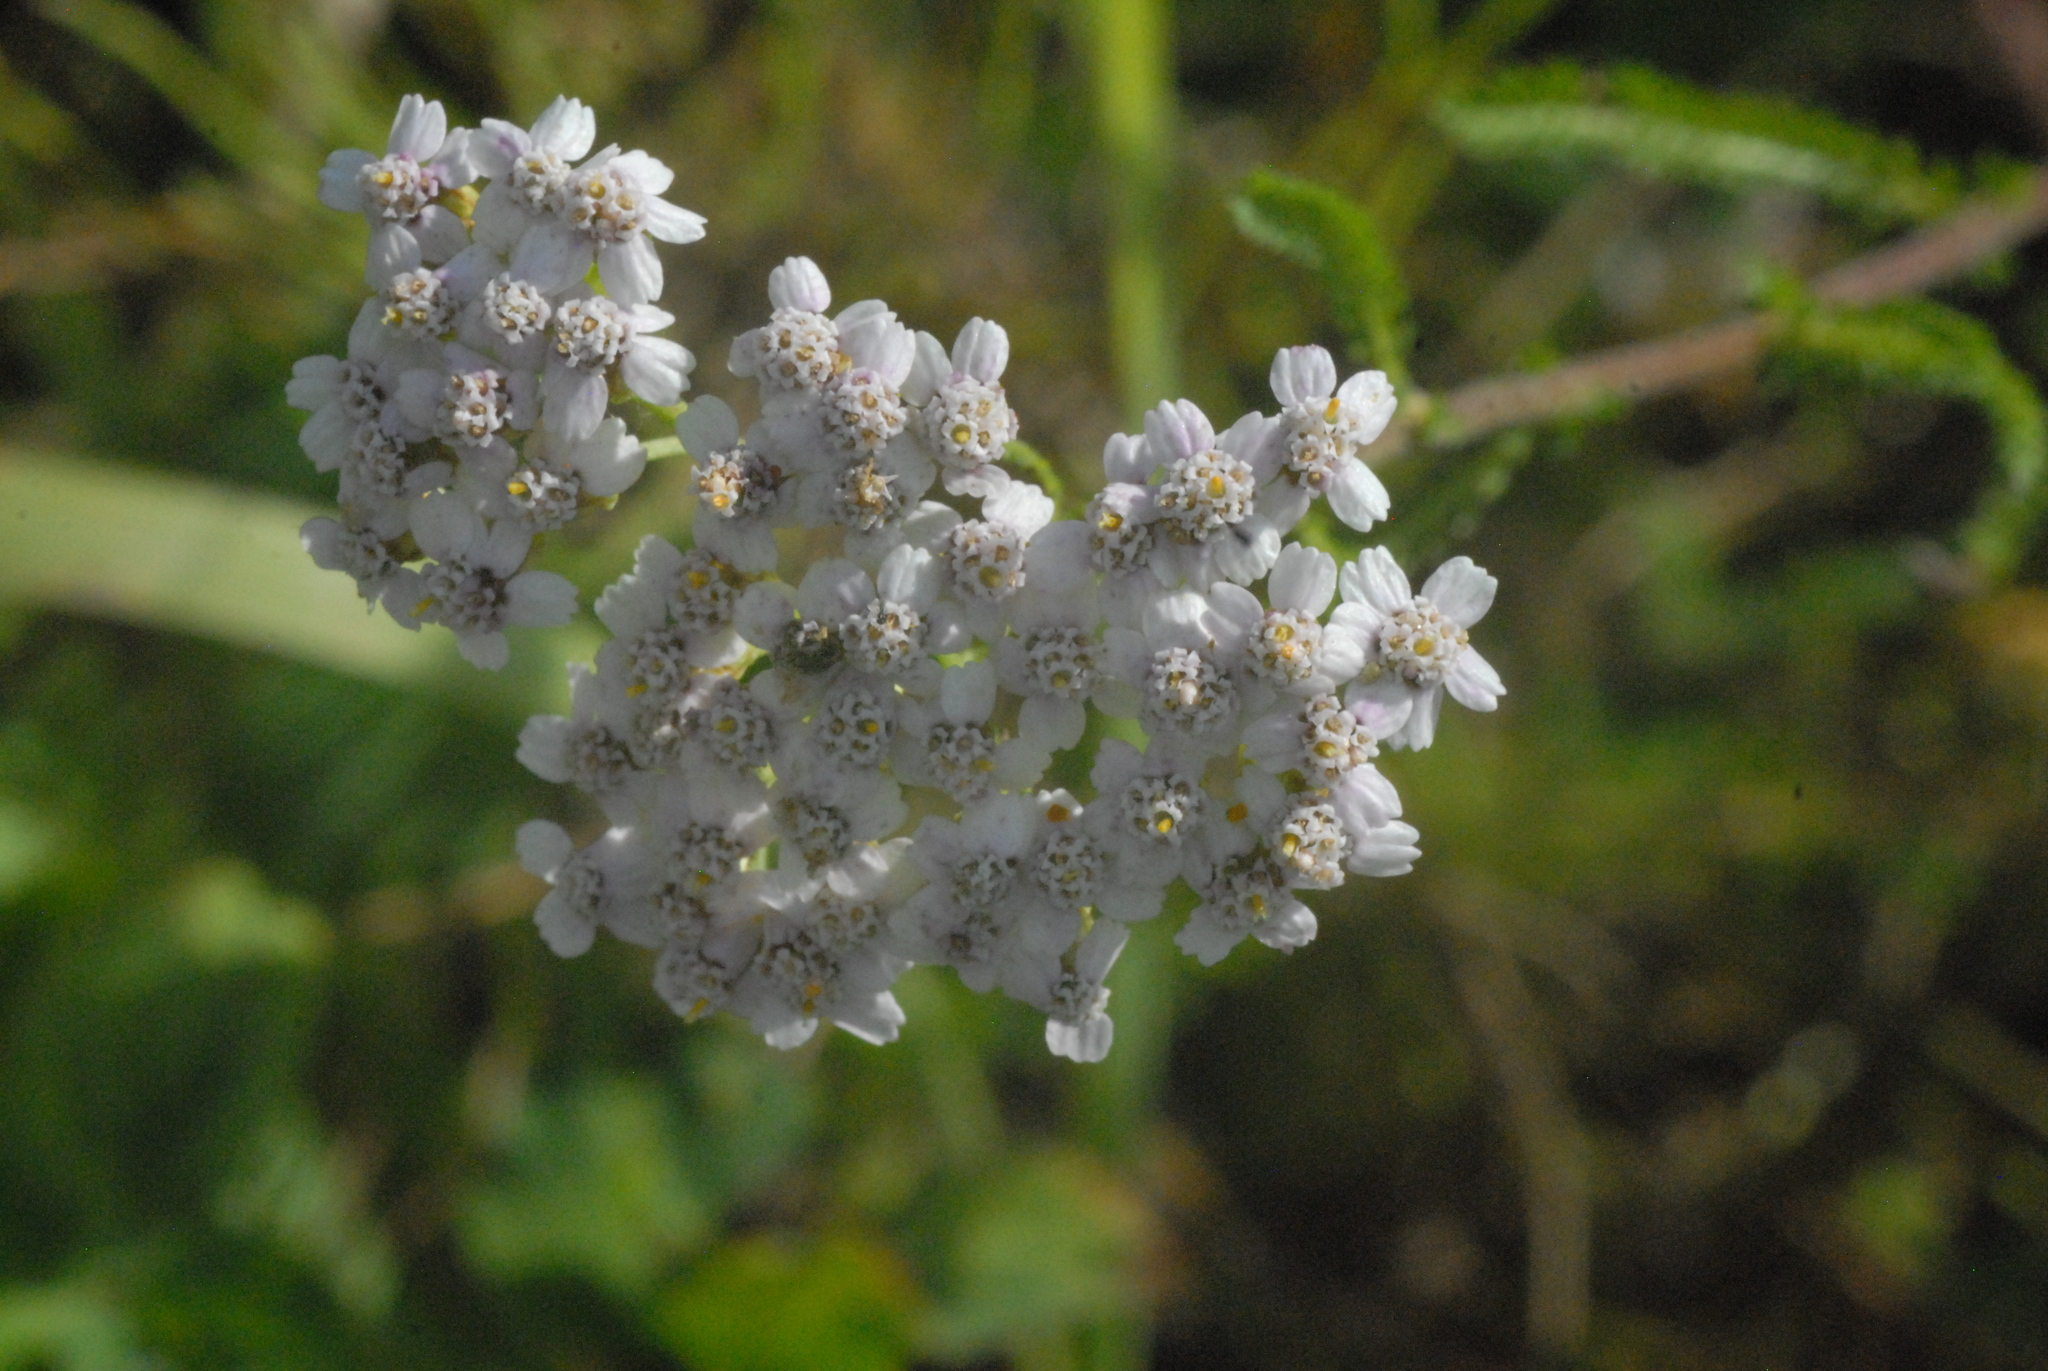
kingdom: Plantae
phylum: Tracheophyta
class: Magnoliopsida
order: Asterales
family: Asteraceae
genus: Achillea
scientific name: Achillea millefolium
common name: Yarrow
